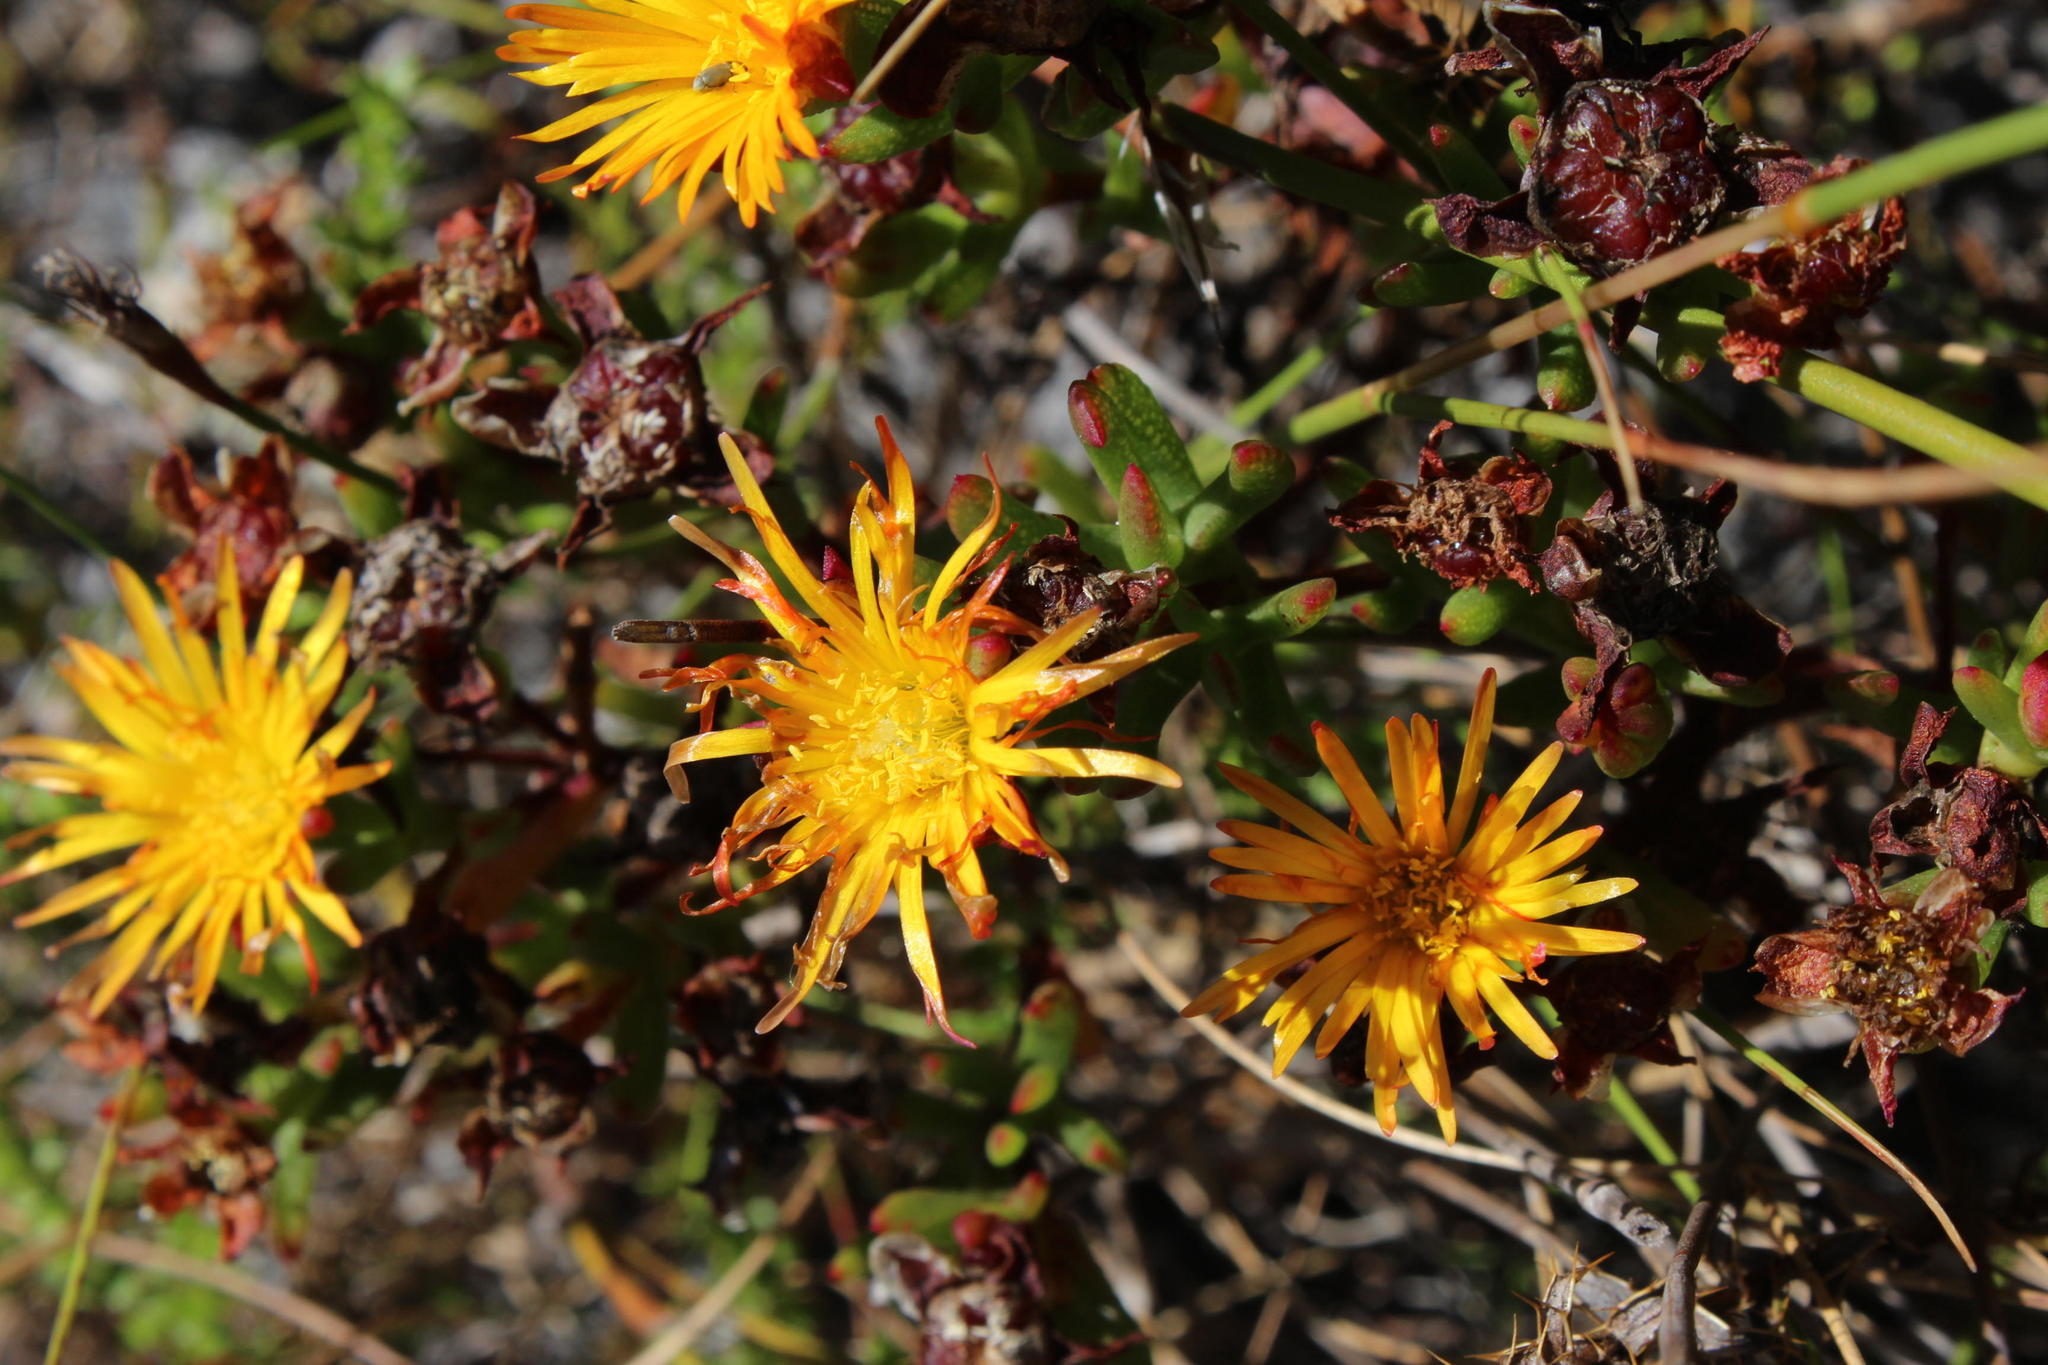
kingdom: Plantae
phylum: Tracheophyta
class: Magnoliopsida
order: Caryophyllales
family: Aizoaceae
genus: Lampranthus
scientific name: Lampranthus bicolor
